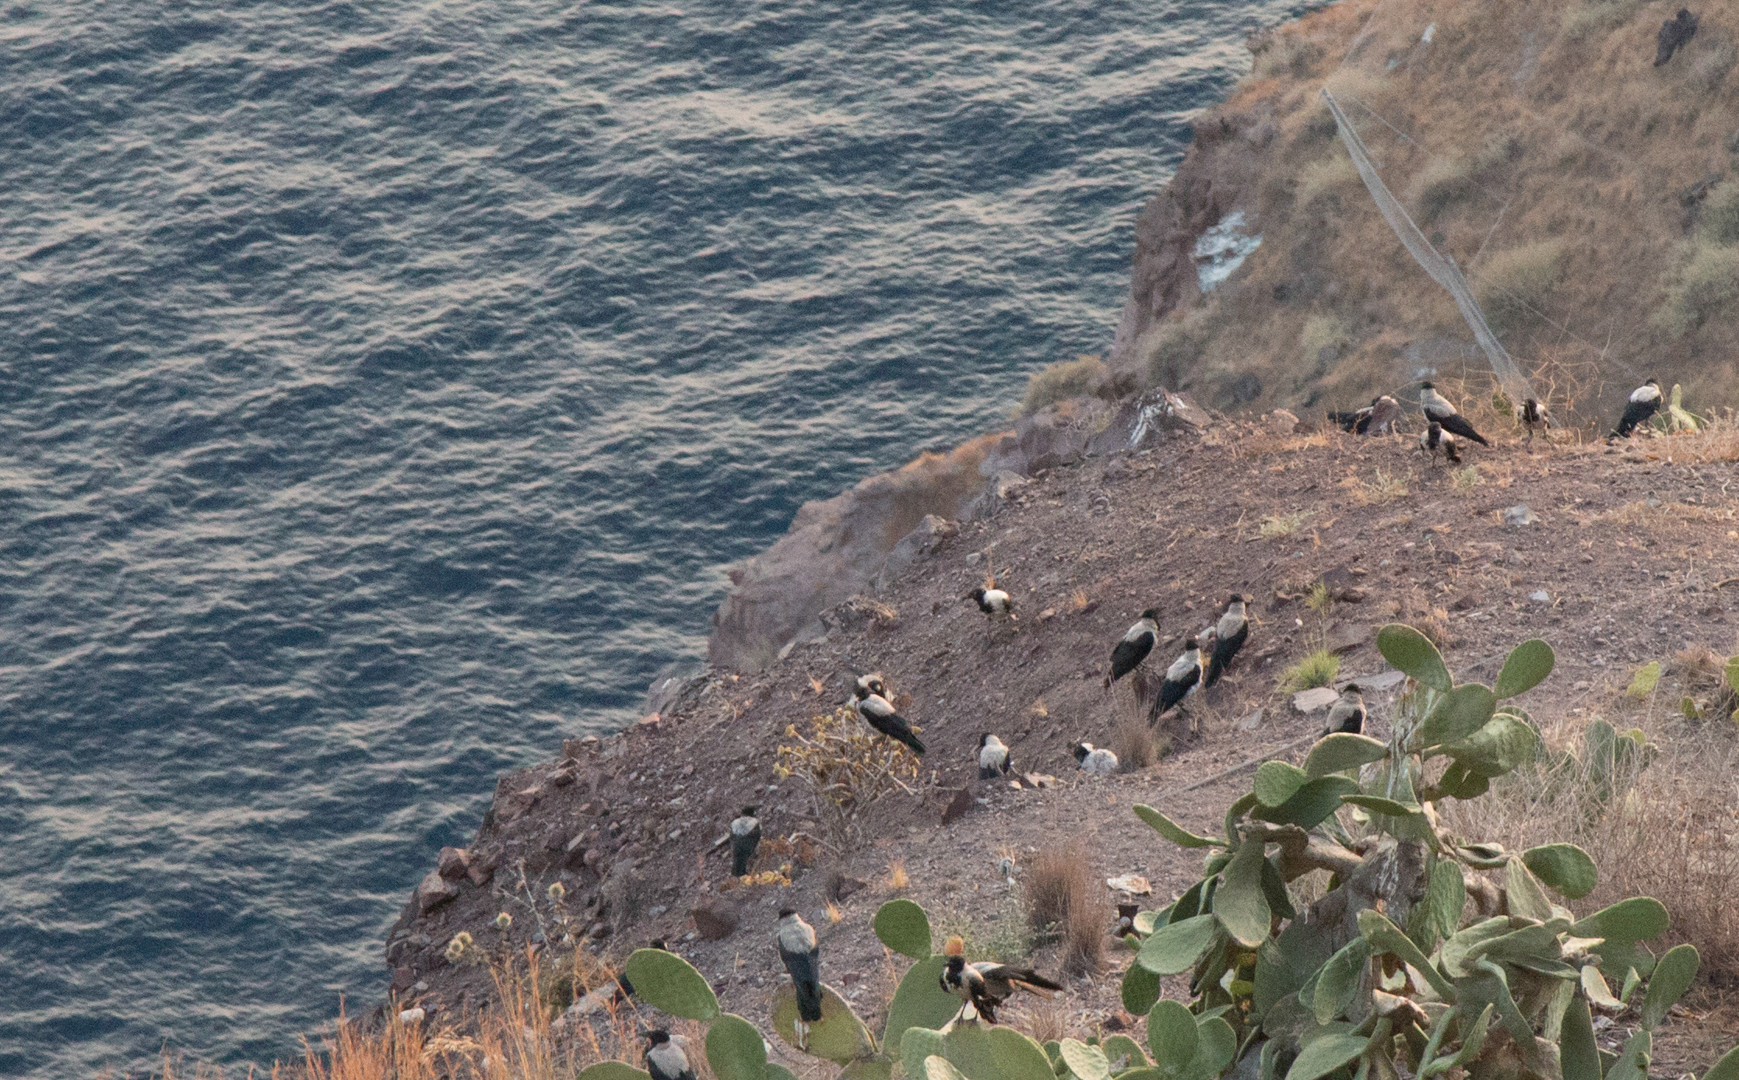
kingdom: Animalia
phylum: Chordata
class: Aves
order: Passeriformes
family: Corvidae
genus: Corvus
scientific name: Corvus cornix
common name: Hooded crow
